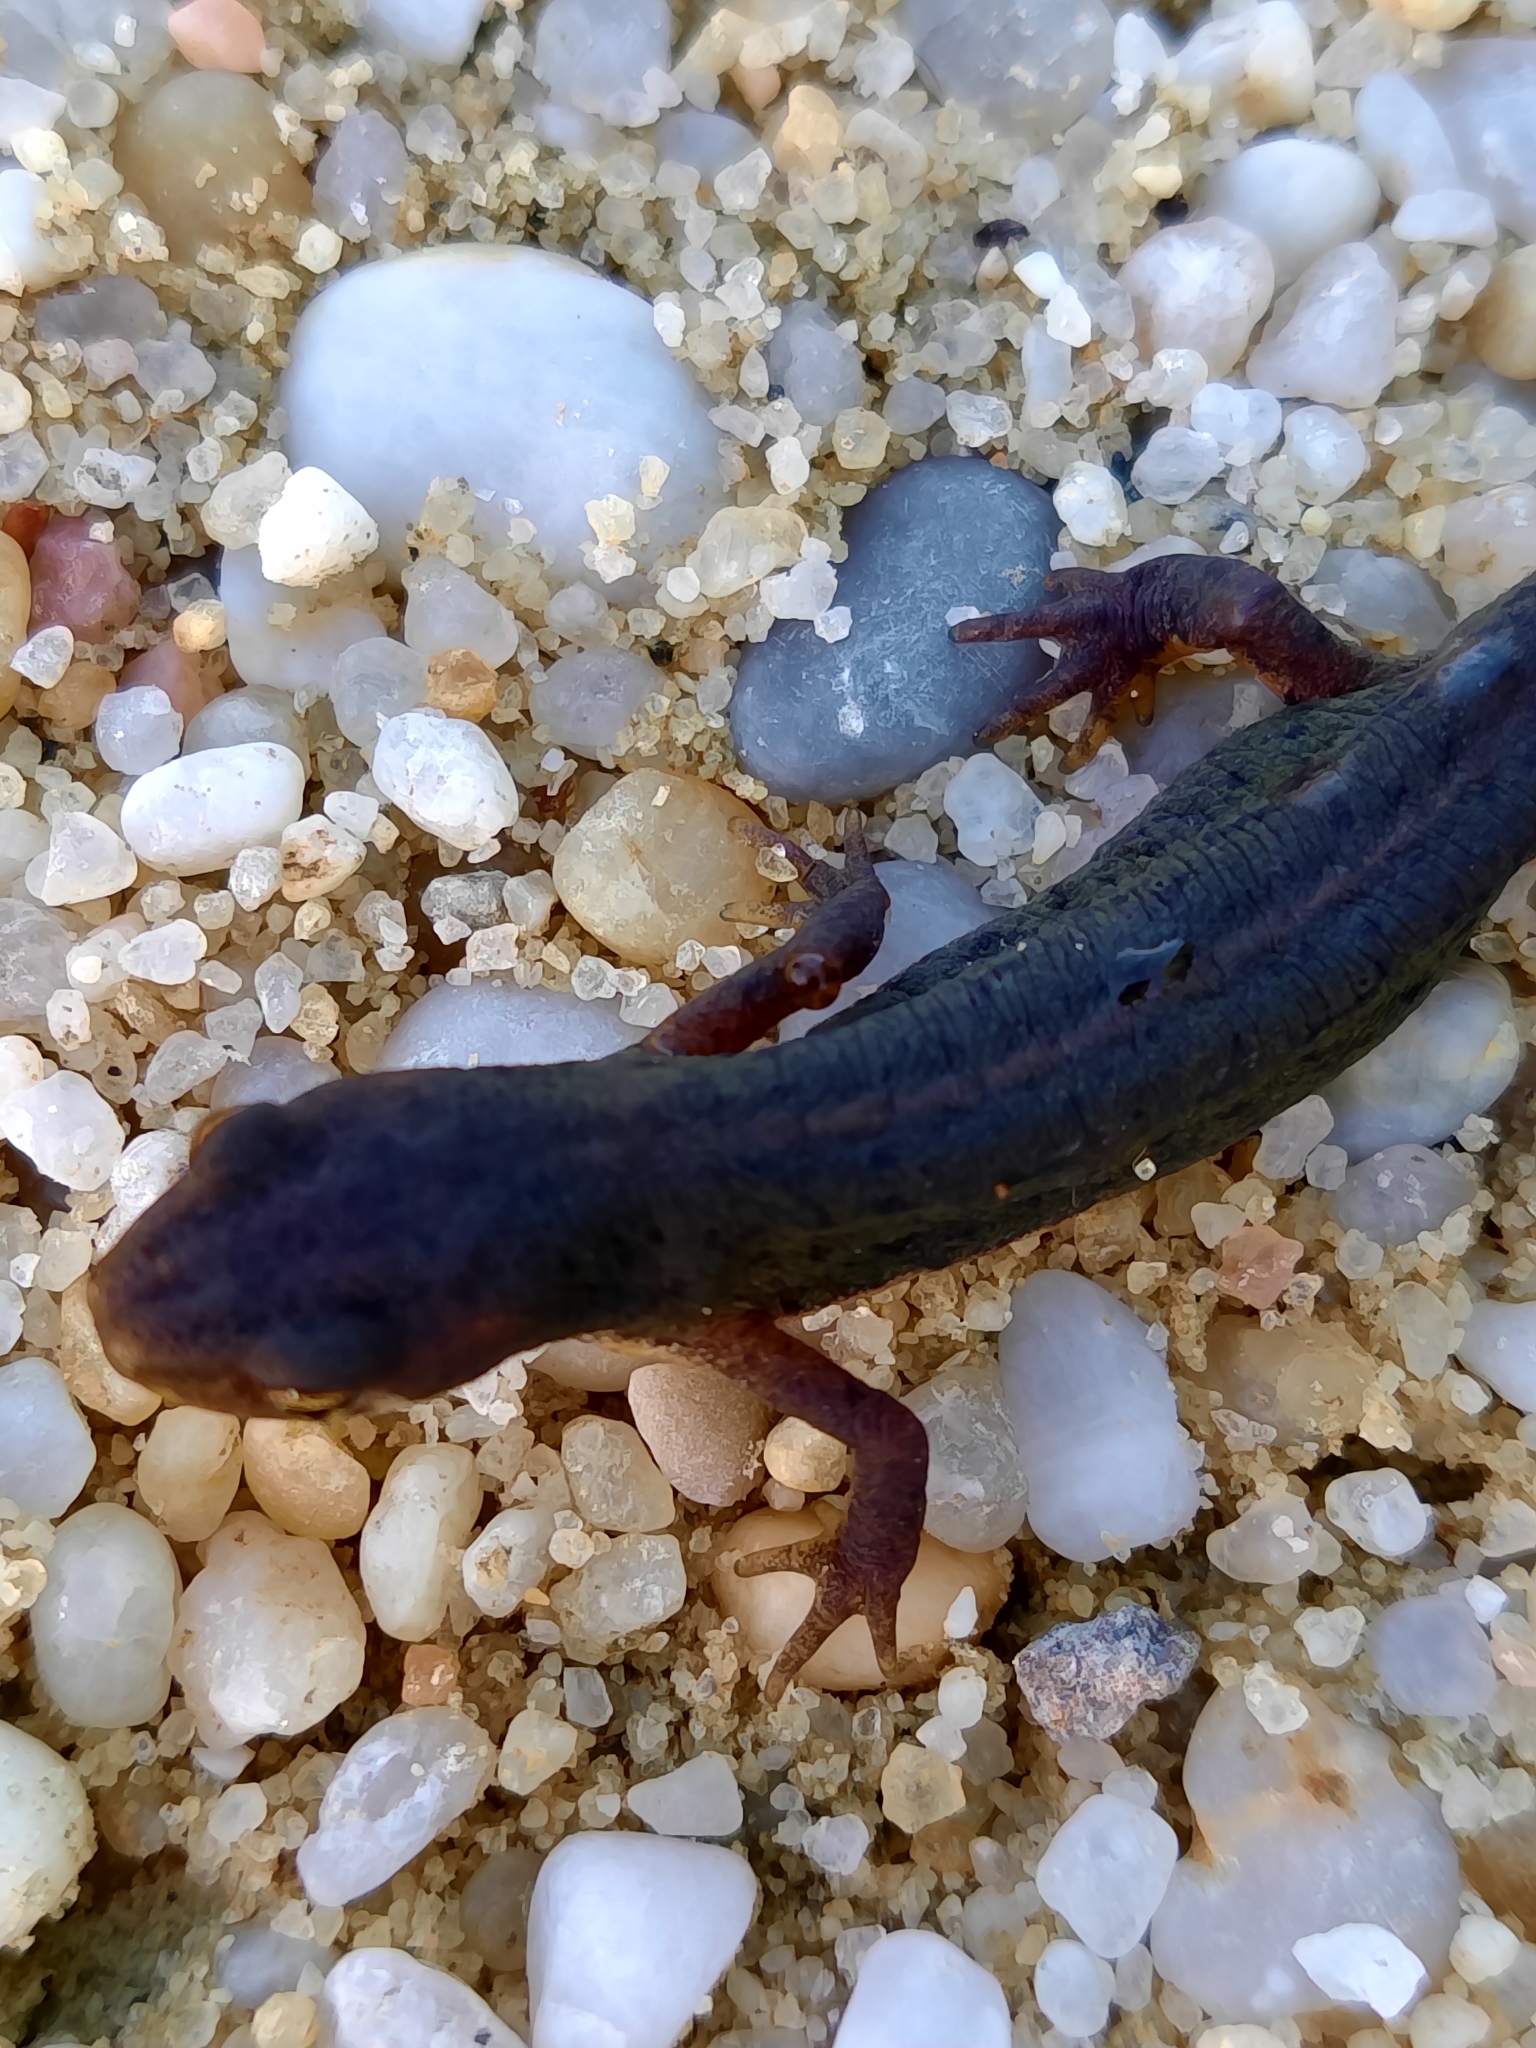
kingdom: Animalia
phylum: Chordata
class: Amphibia
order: Caudata
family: Salamandridae
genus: Lissotriton
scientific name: Lissotriton boscai
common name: Bosca's newt
